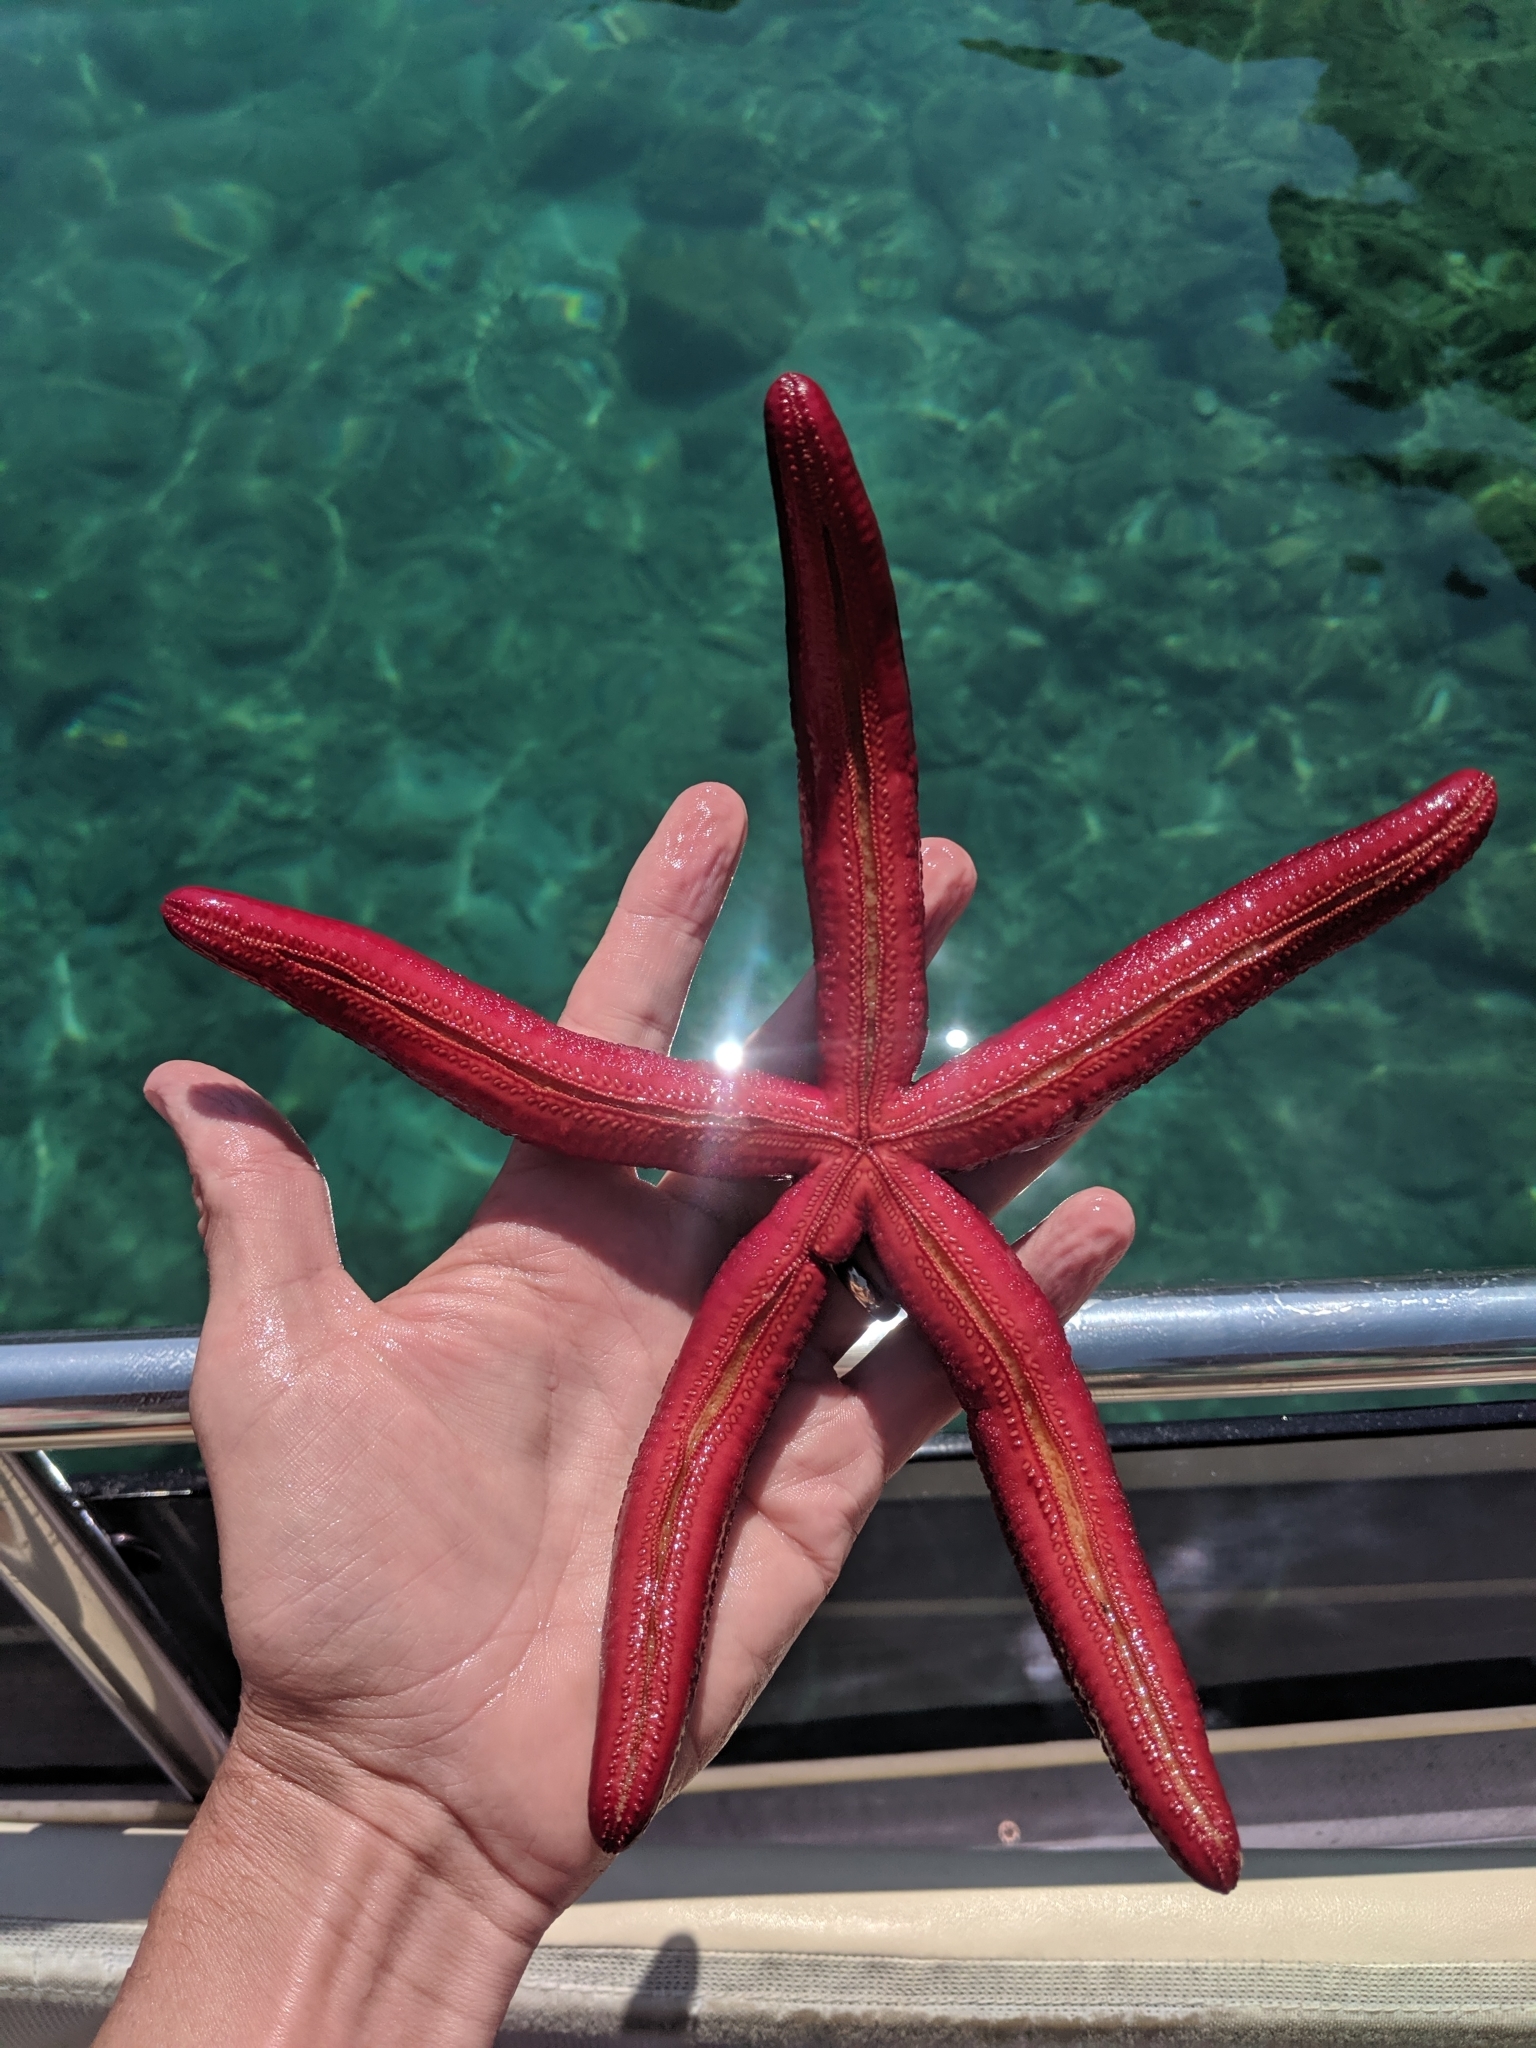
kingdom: Animalia
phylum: Echinodermata
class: Asteroidea
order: Valvatida
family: Ophidiasteridae
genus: Ophidiaster
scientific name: Ophidiaster ophidianus
